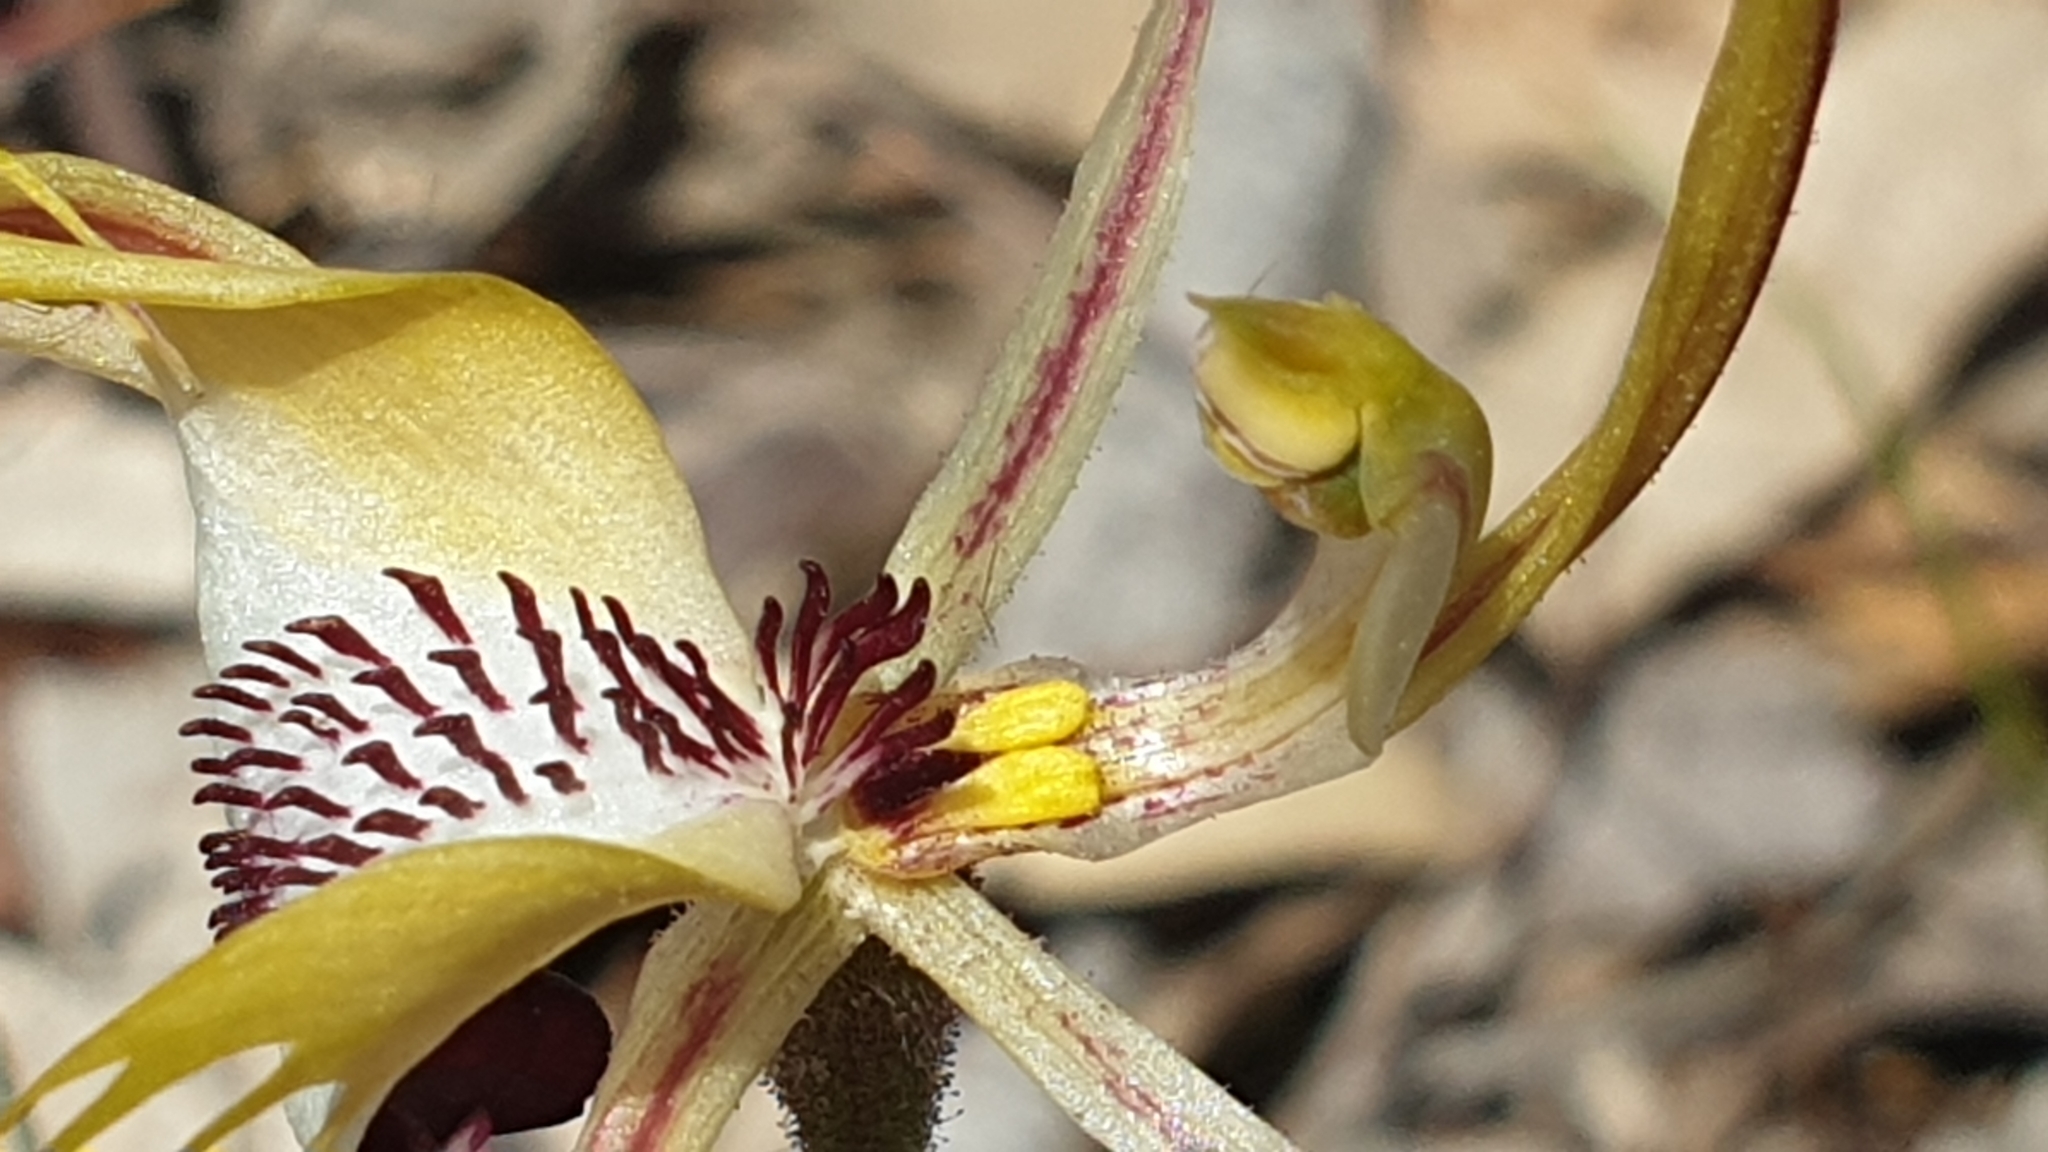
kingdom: Plantae
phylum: Tracheophyta
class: Liliopsida
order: Asparagales
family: Orchidaceae
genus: Caladenia
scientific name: Caladenia tentaculata
